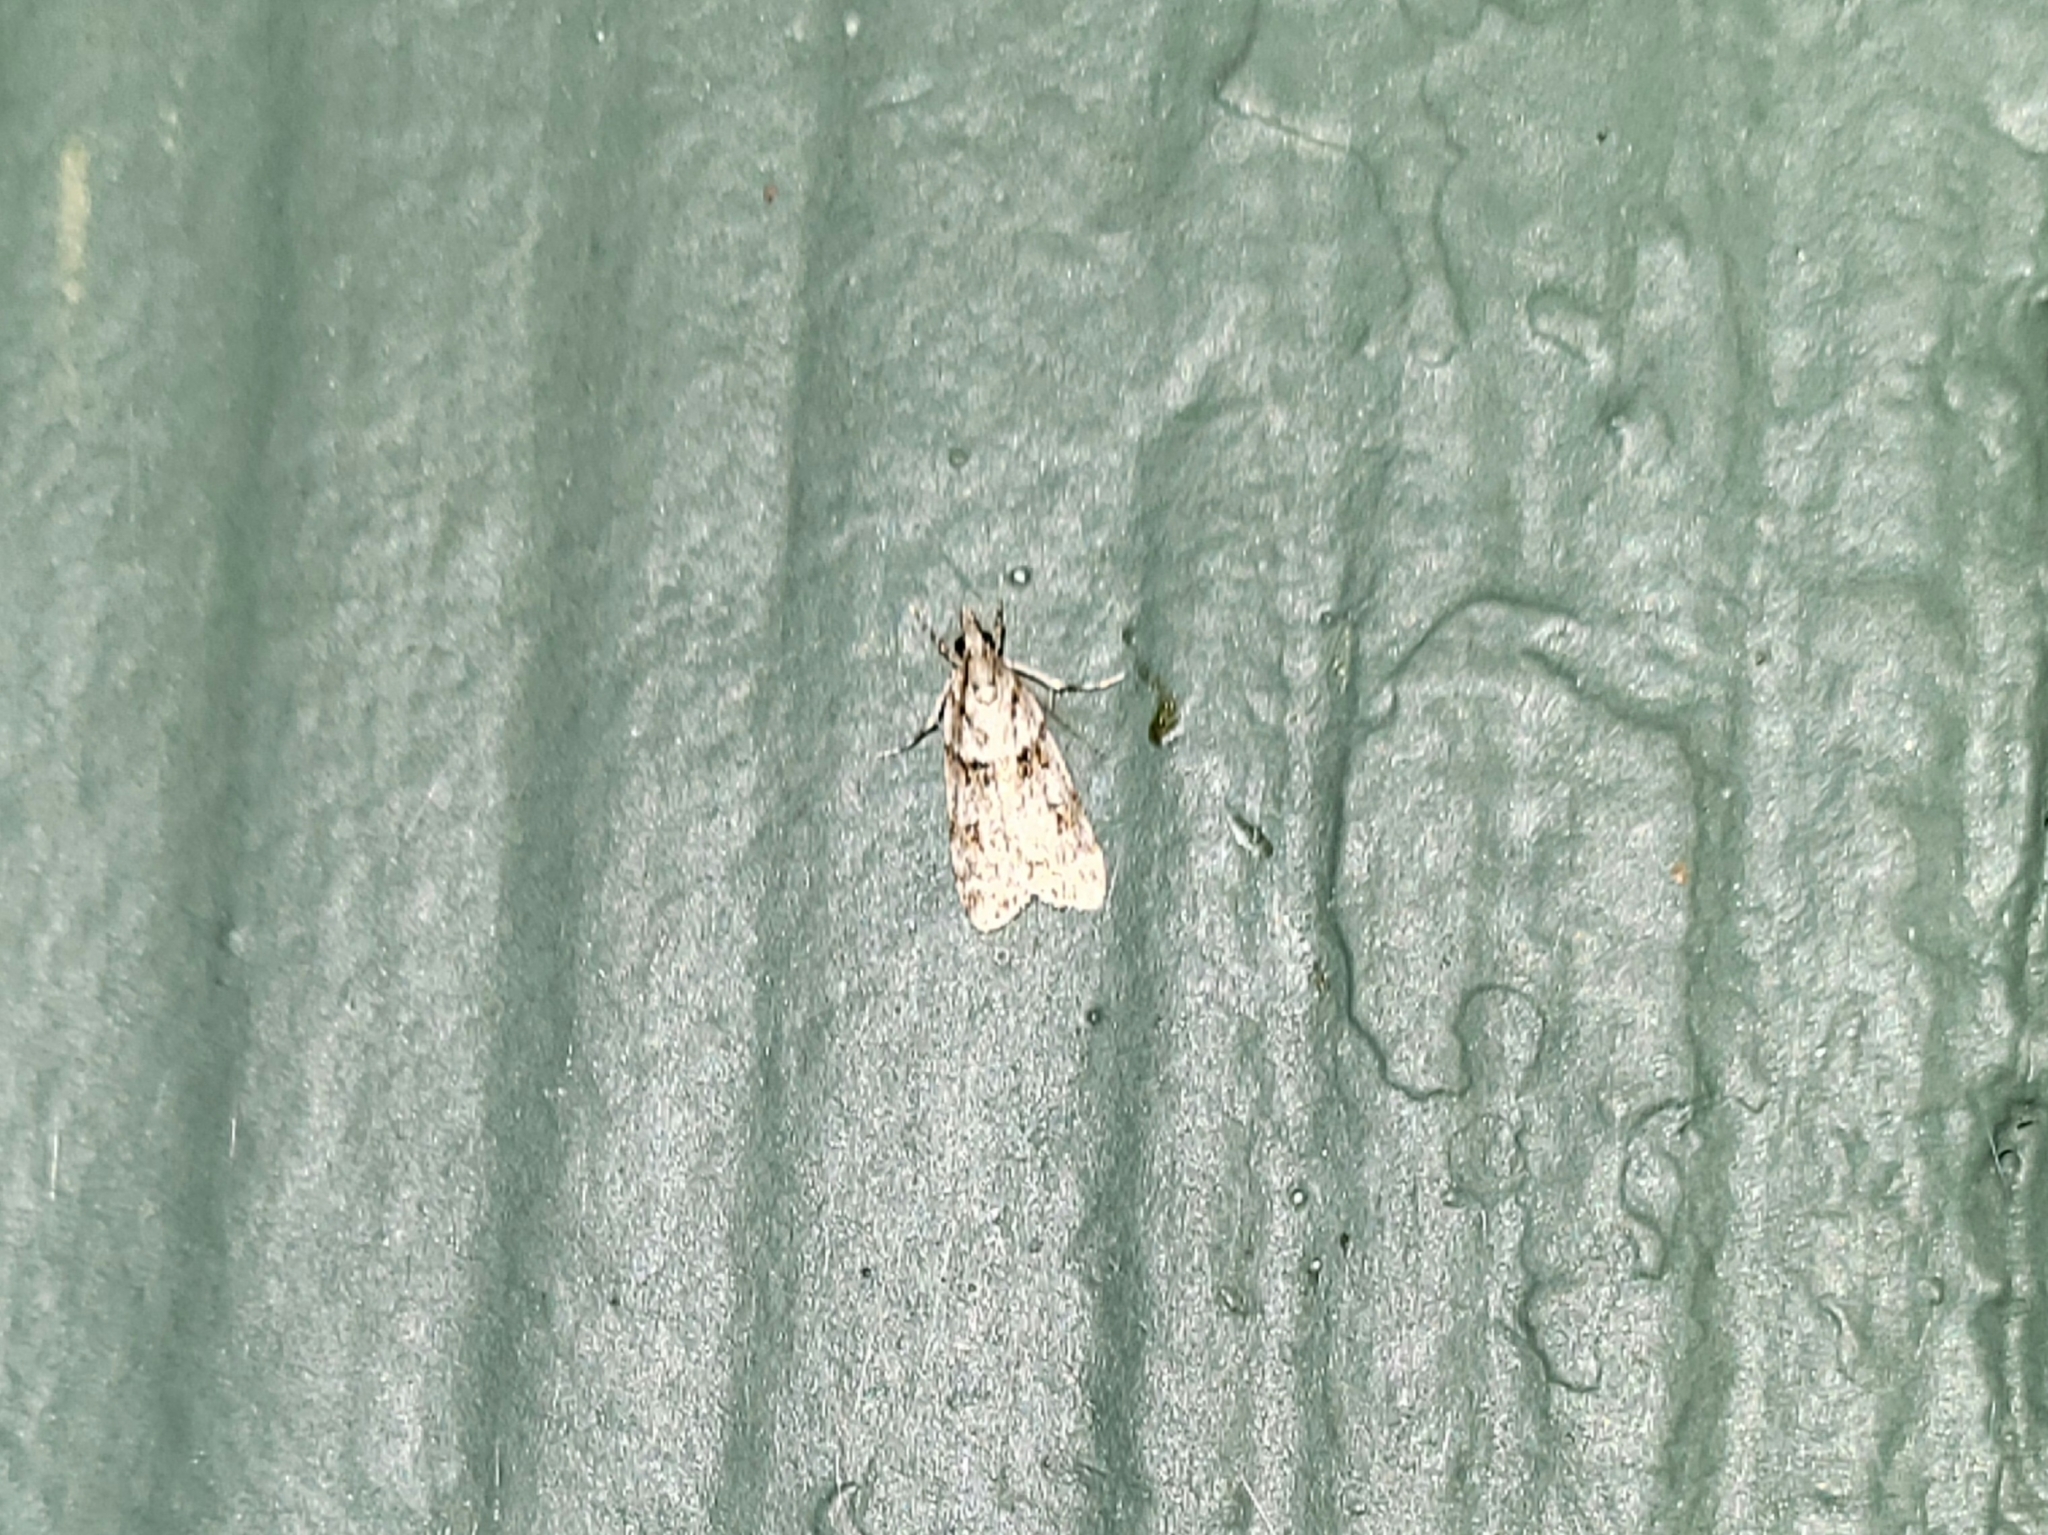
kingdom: Animalia
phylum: Arthropoda
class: Insecta
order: Lepidoptera
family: Crambidae
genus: Scoparia
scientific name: Scoparia biplagialis
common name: Double-striped scoparia moth
